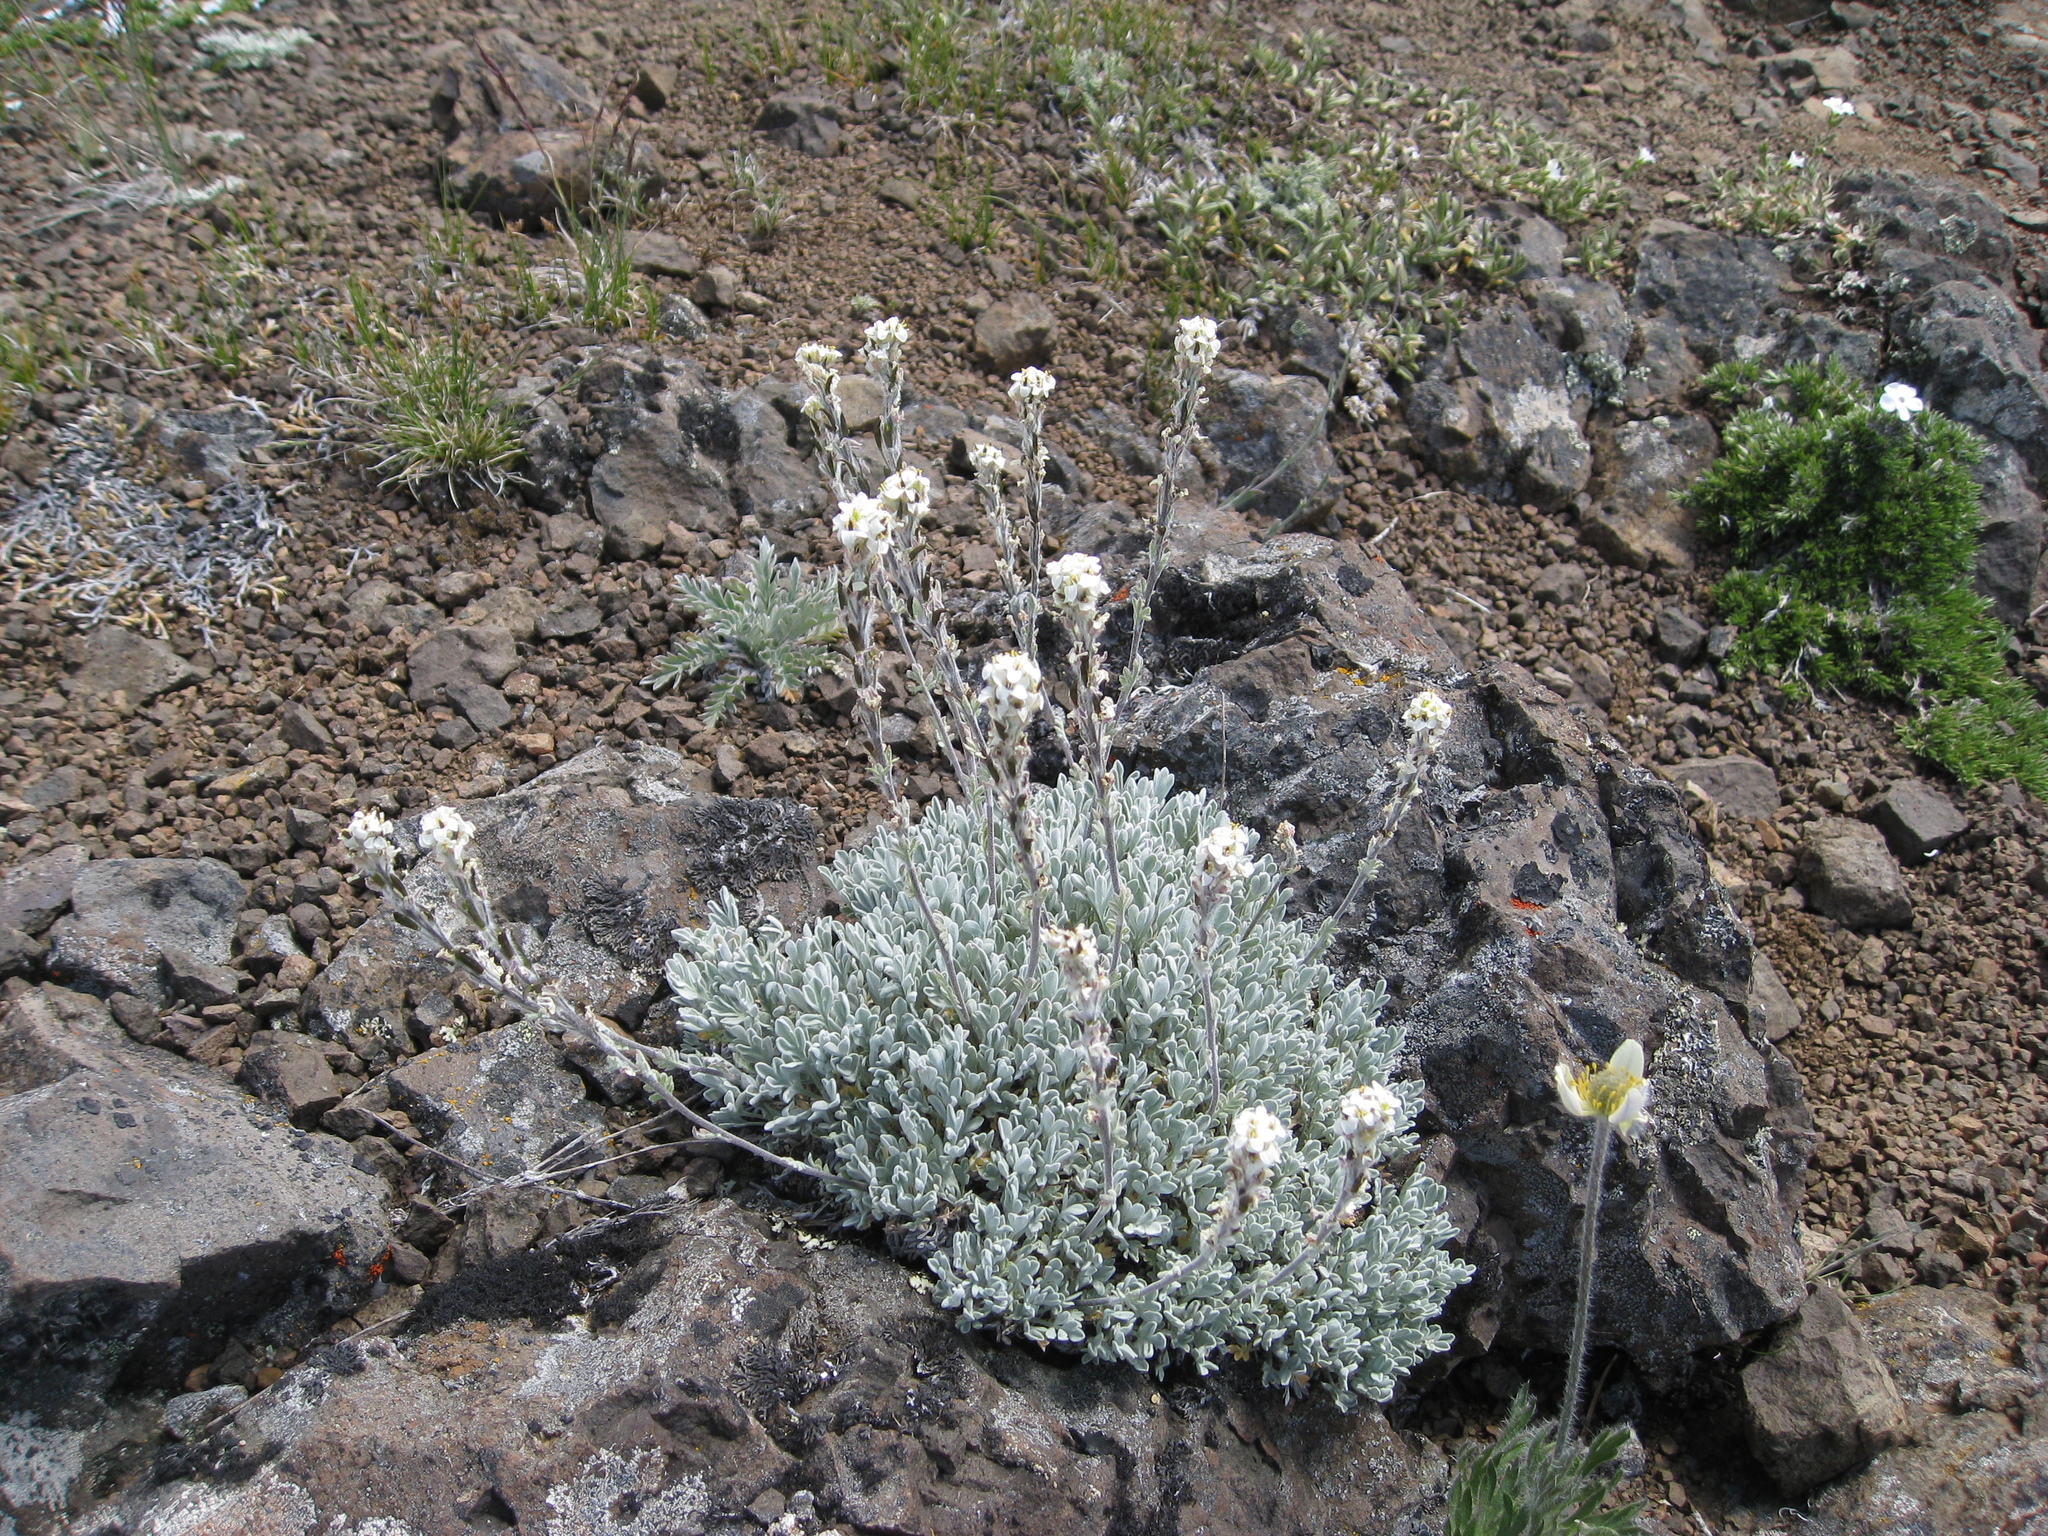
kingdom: Plantae
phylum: Tracheophyta
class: Magnoliopsida
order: Brassicales
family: Brassicaceae
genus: Smelowskia
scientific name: Smelowskia americana
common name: American false candytuft
